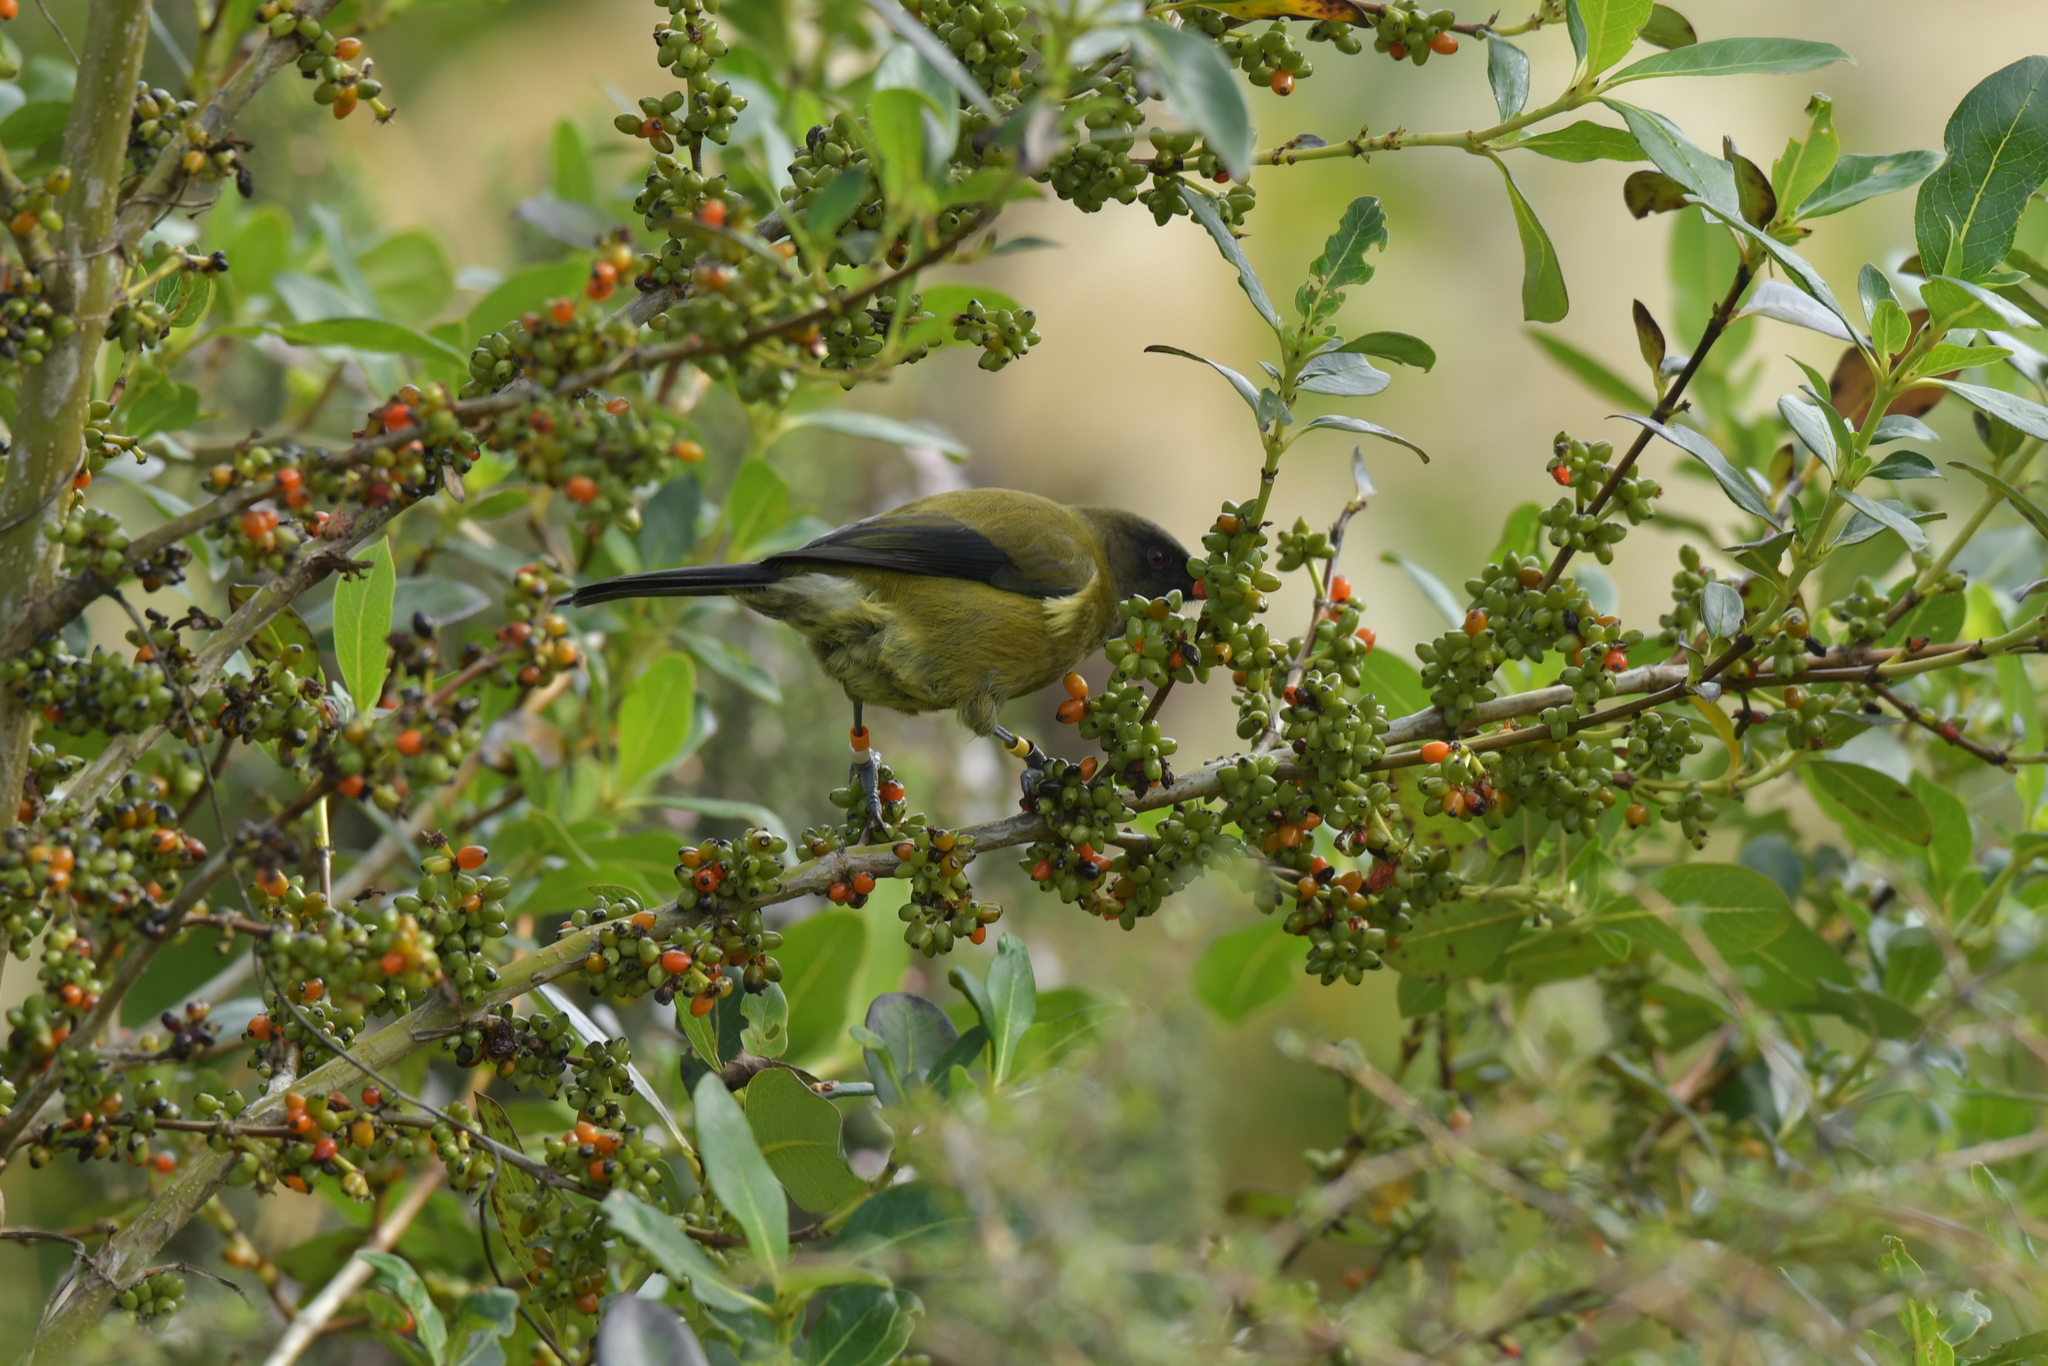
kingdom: Animalia
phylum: Chordata
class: Aves
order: Passeriformes
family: Meliphagidae
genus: Anthornis
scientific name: Anthornis melanura
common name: New zealand bellbird
